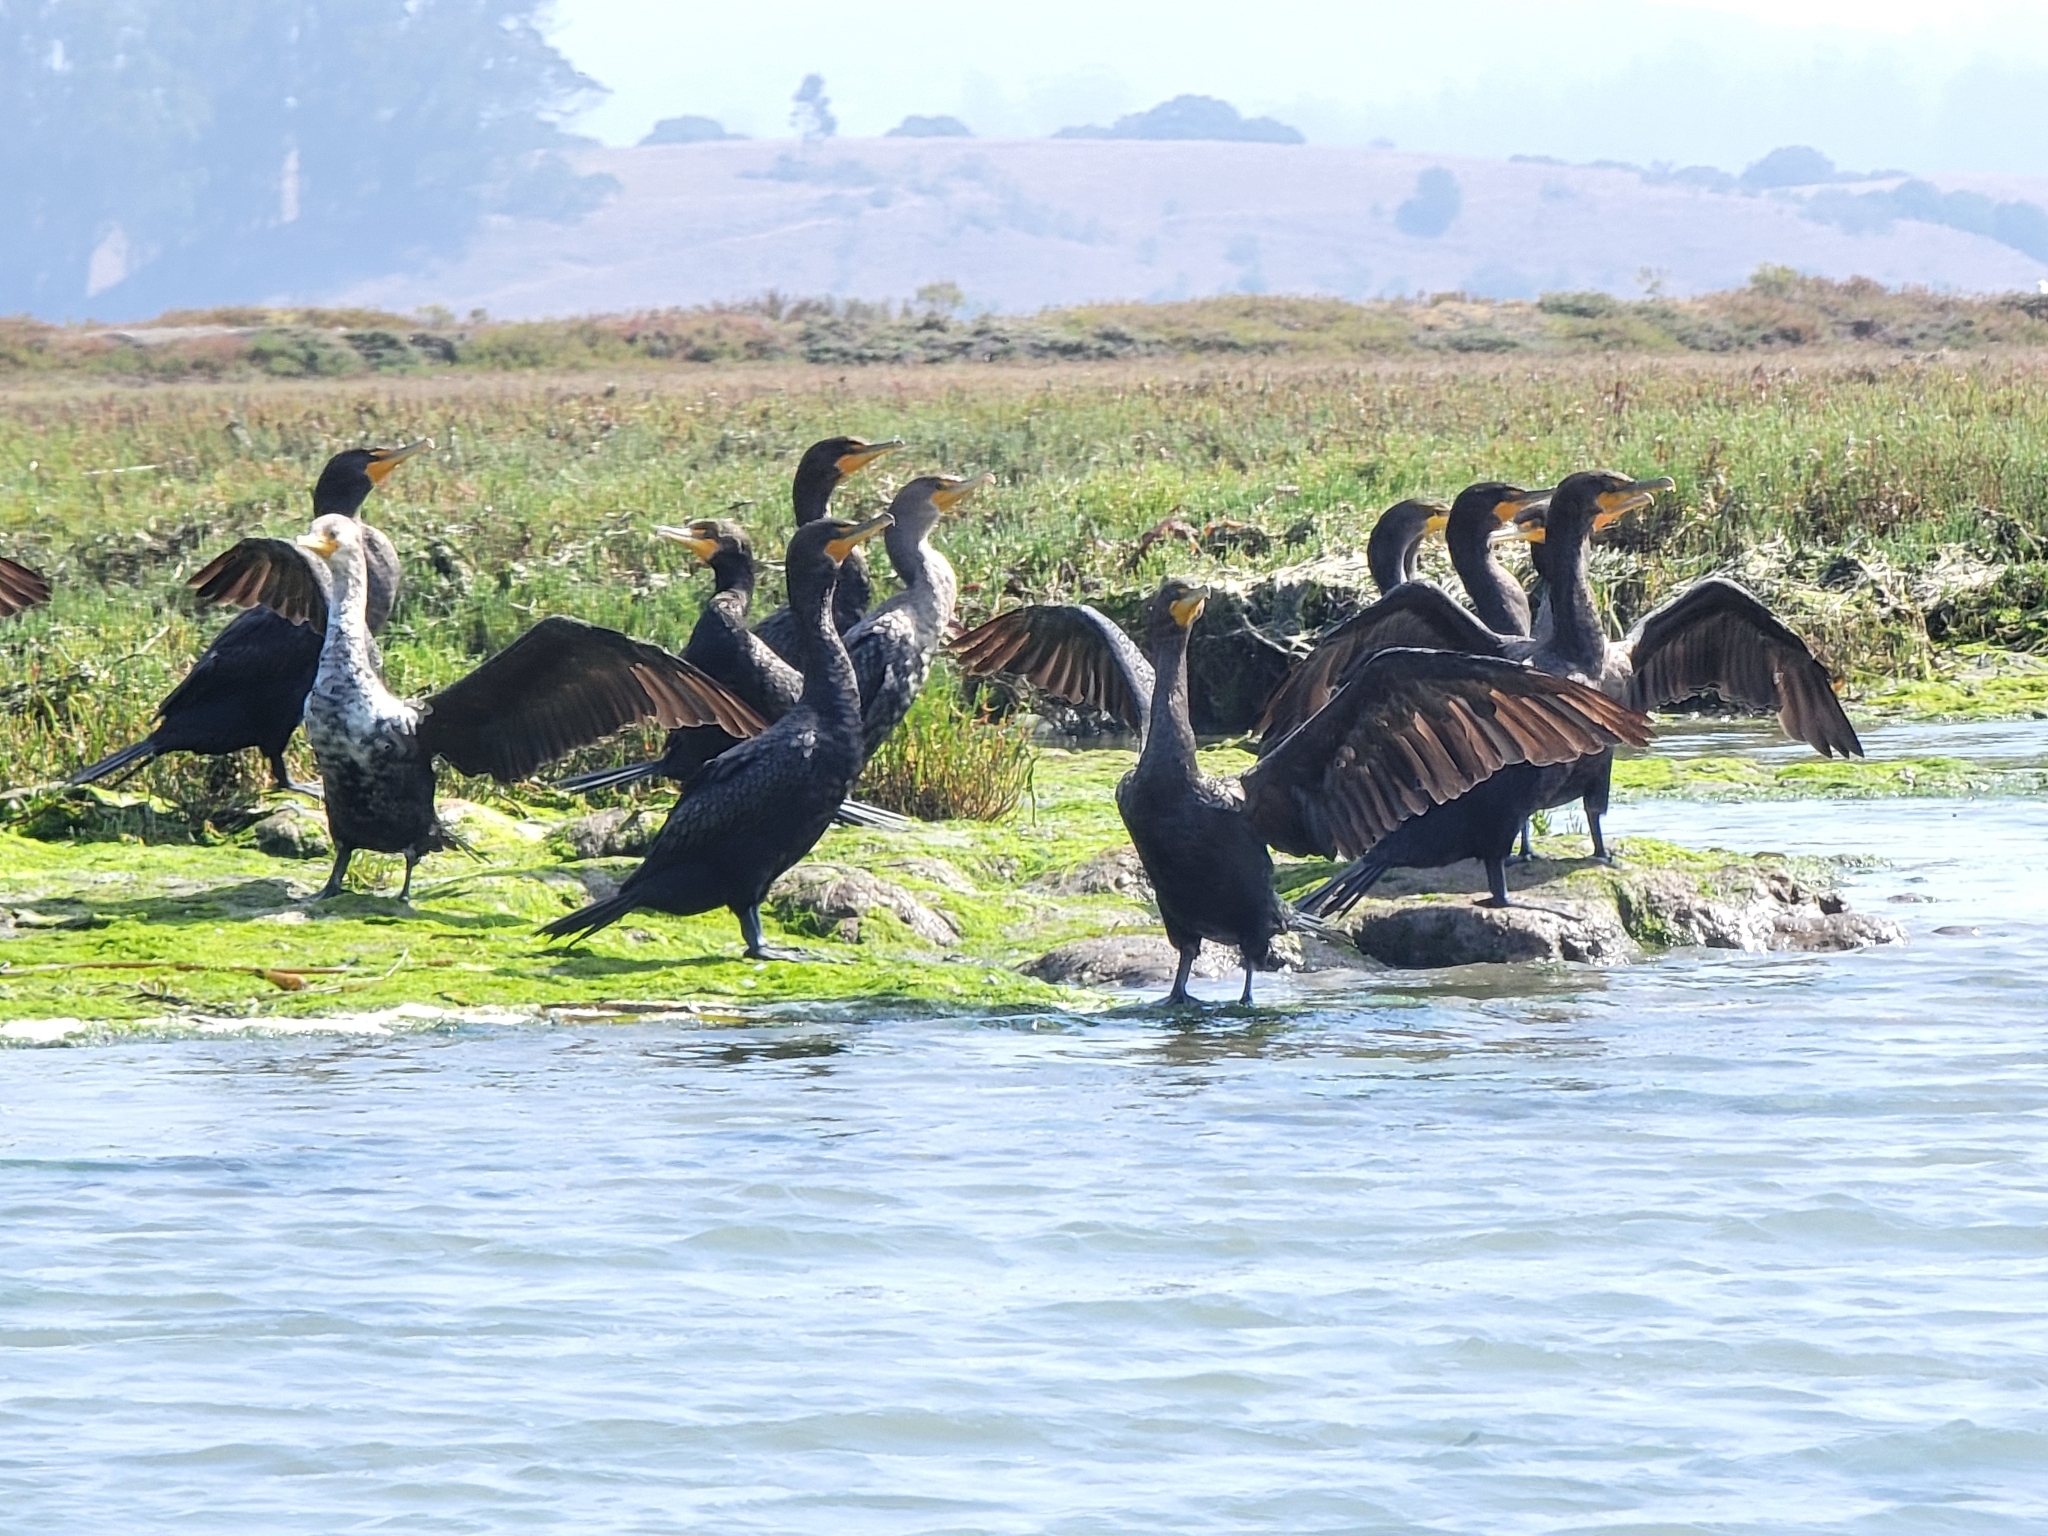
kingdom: Animalia
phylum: Chordata
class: Aves
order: Suliformes
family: Phalacrocoracidae
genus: Phalacrocorax
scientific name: Phalacrocorax auritus
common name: Double-crested cormorant
